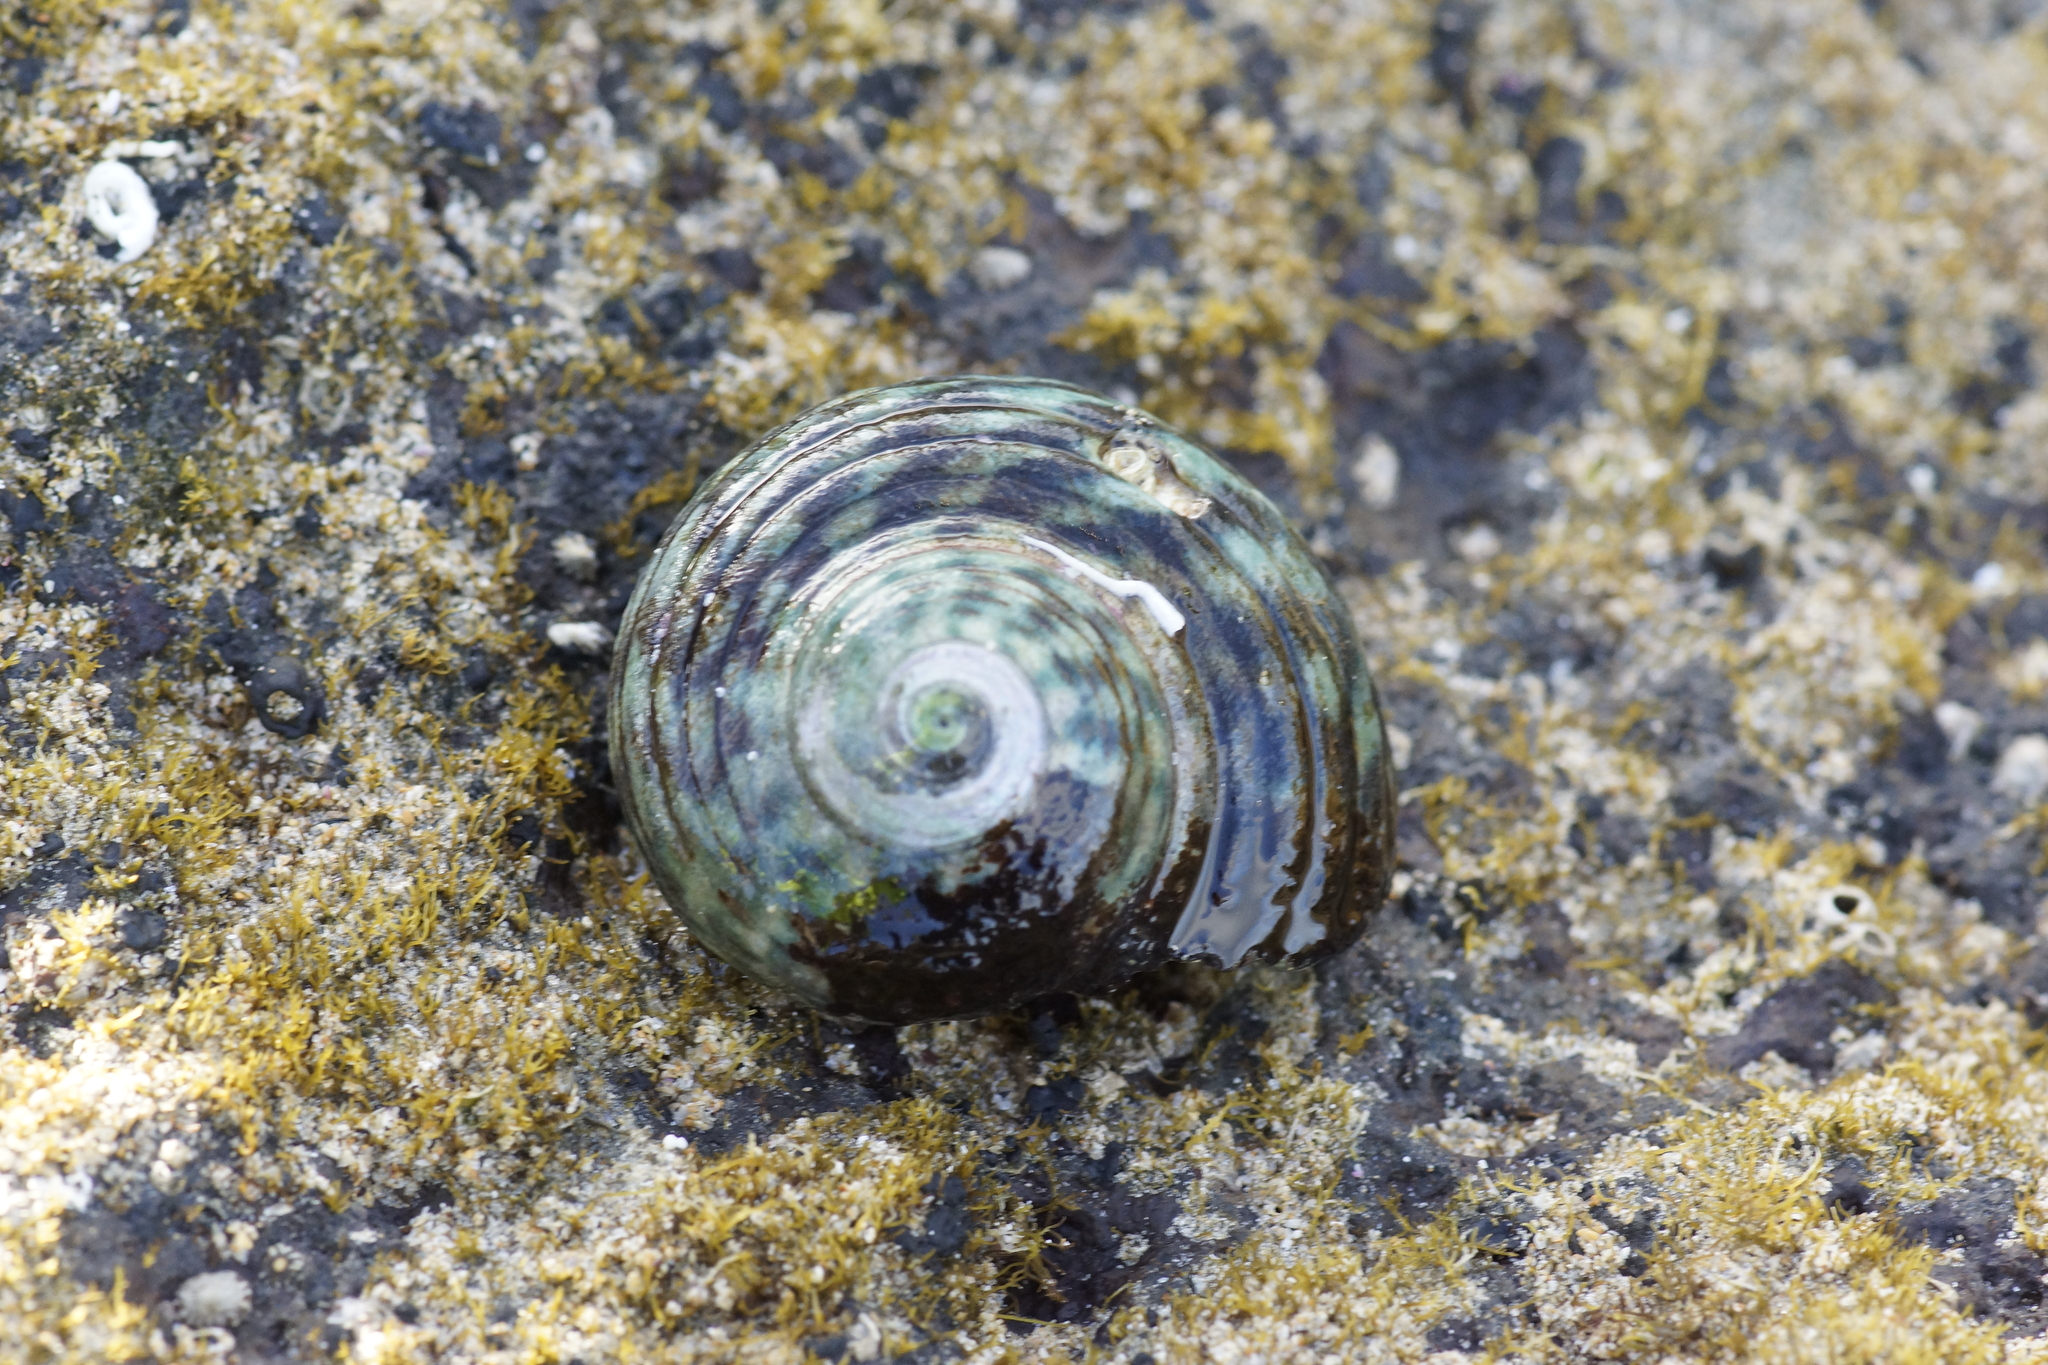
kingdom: Animalia
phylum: Mollusca
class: Gastropoda
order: Trochida
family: Turbinidae
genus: Lunella
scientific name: Lunella undulata
